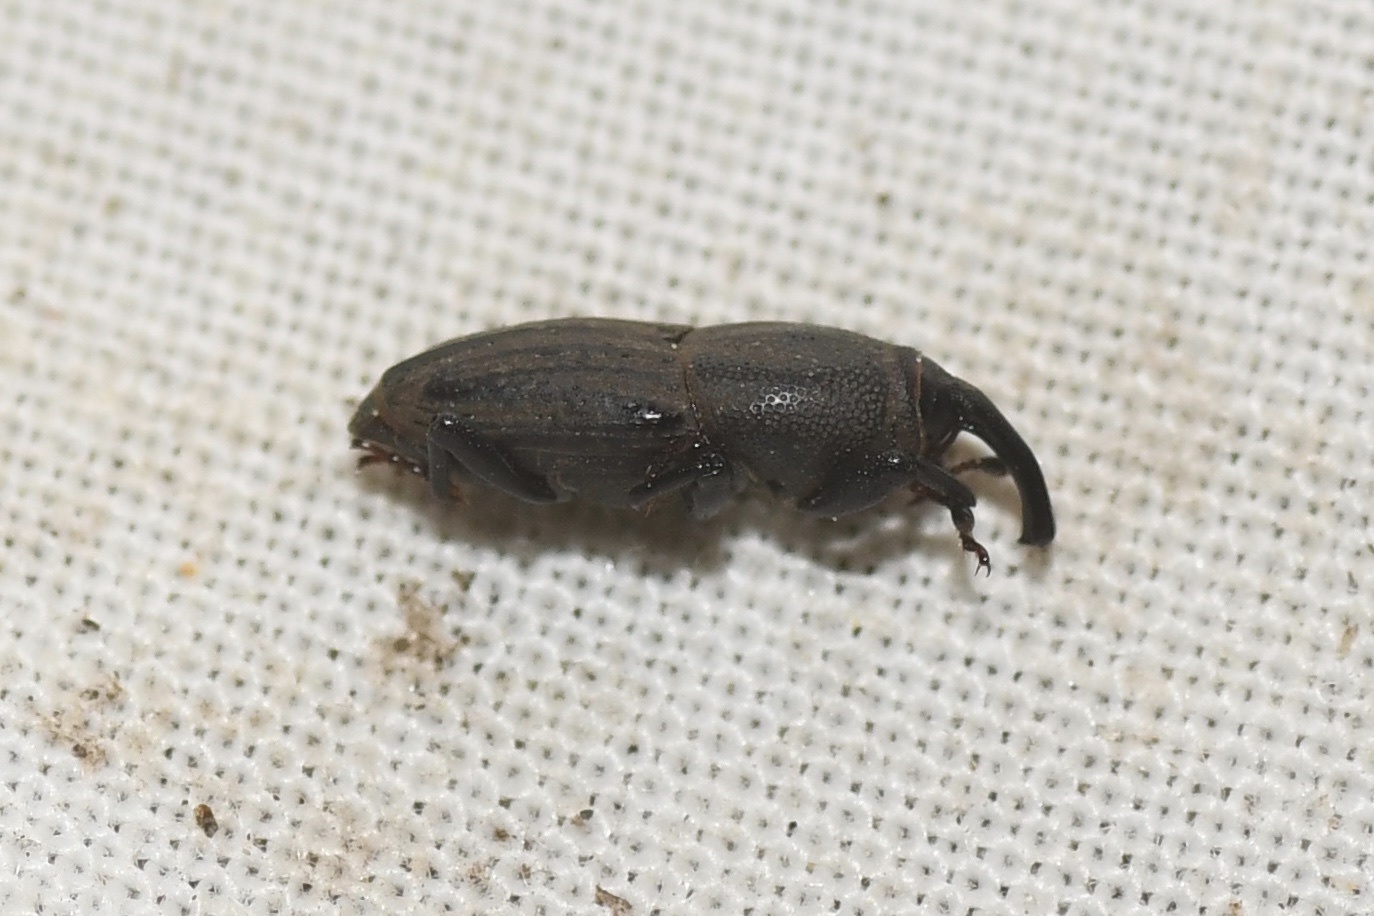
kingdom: Animalia
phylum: Arthropoda
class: Insecta
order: Coleoptera
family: Dryophthoridae
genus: Sphenophorus
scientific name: Sphenophorus interstitialis
